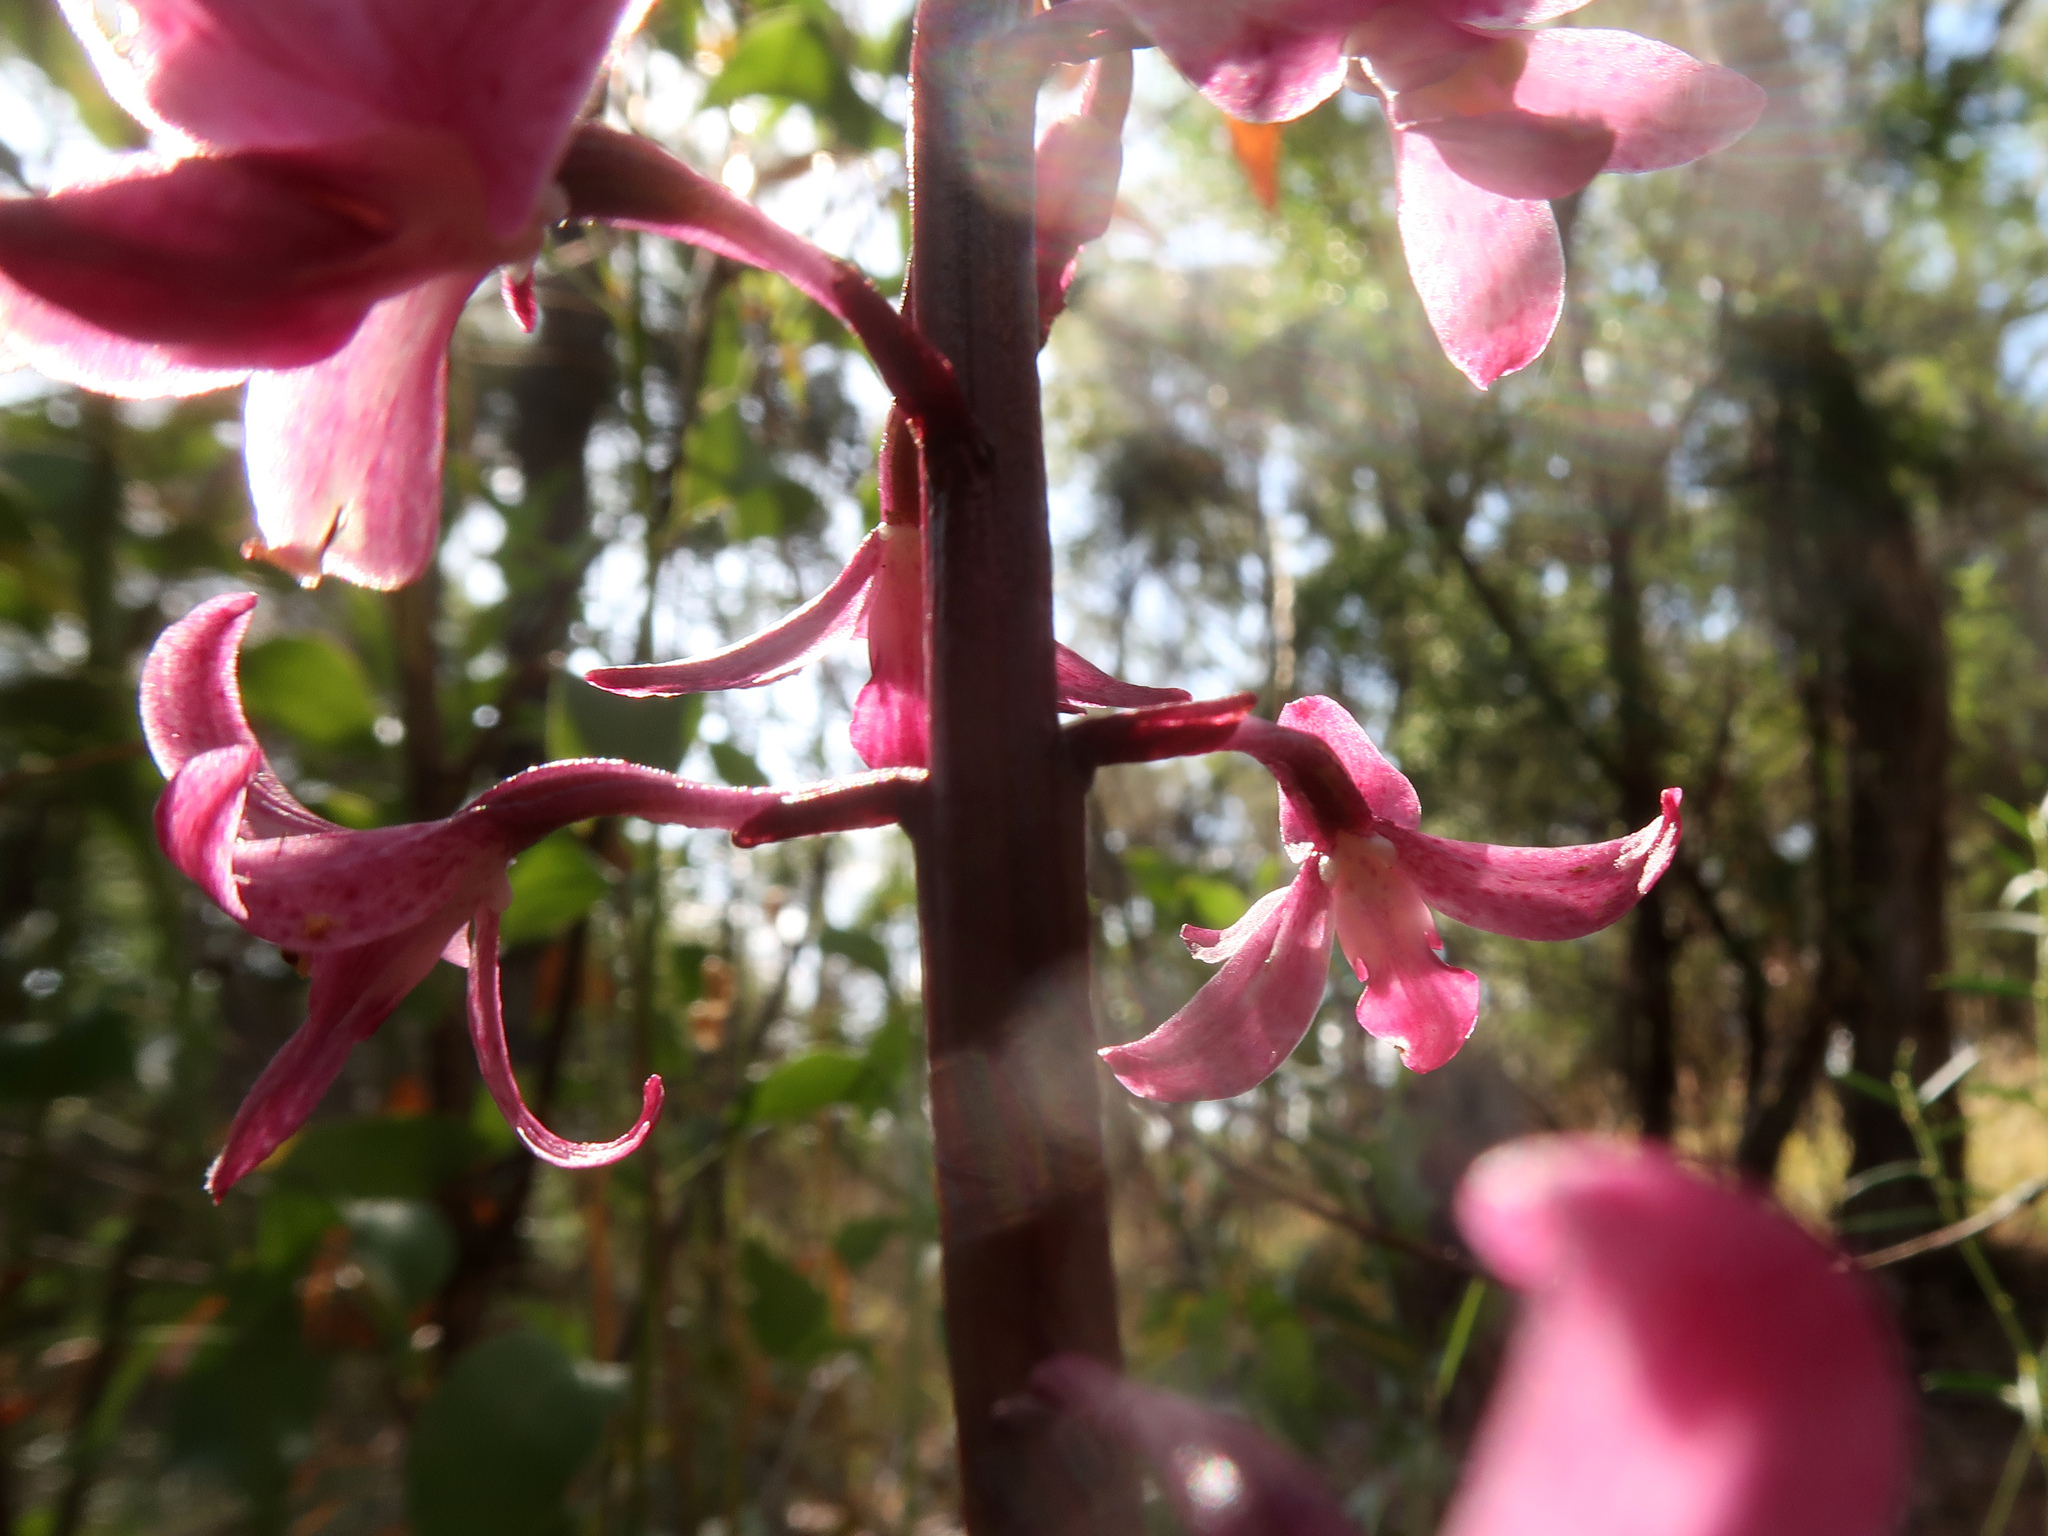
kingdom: Plantae
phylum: Tracheophyta
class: Liliopsida
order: Asparagales
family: Orchidaceae
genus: Dipodium
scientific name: Dipodium roseum
